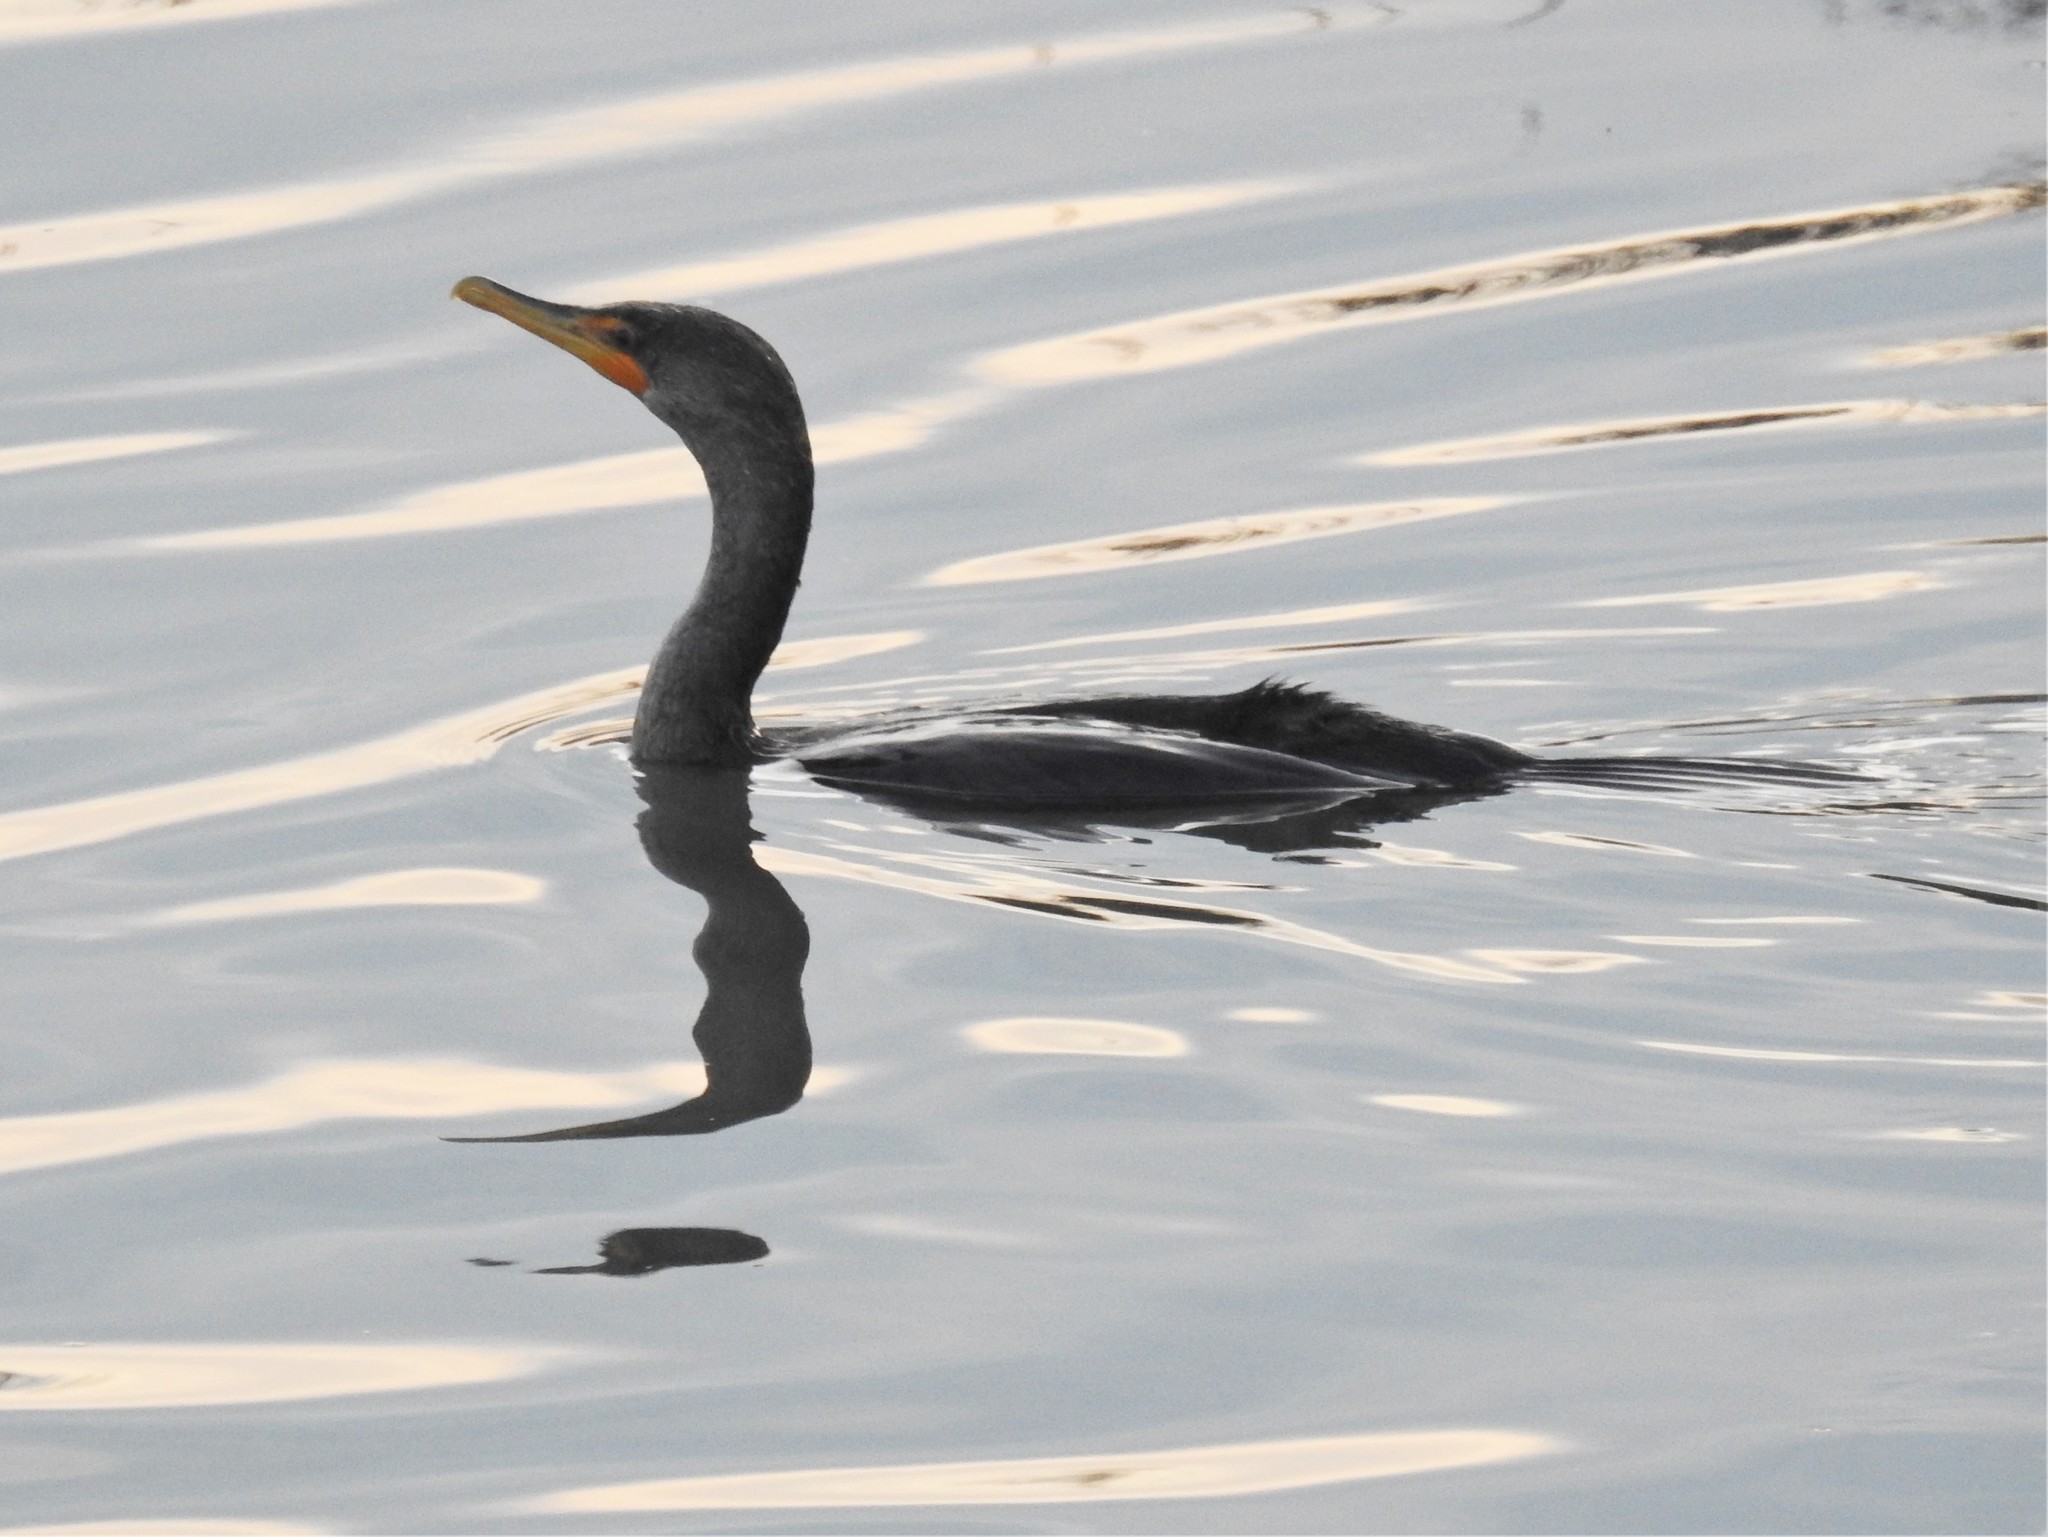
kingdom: Animalia
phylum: Chordata
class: Aves
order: Suliformes
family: Phalacrocoracidae
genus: Phalacrocorax
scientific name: Phalacrocorax auritus
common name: Double-crested cormorant
